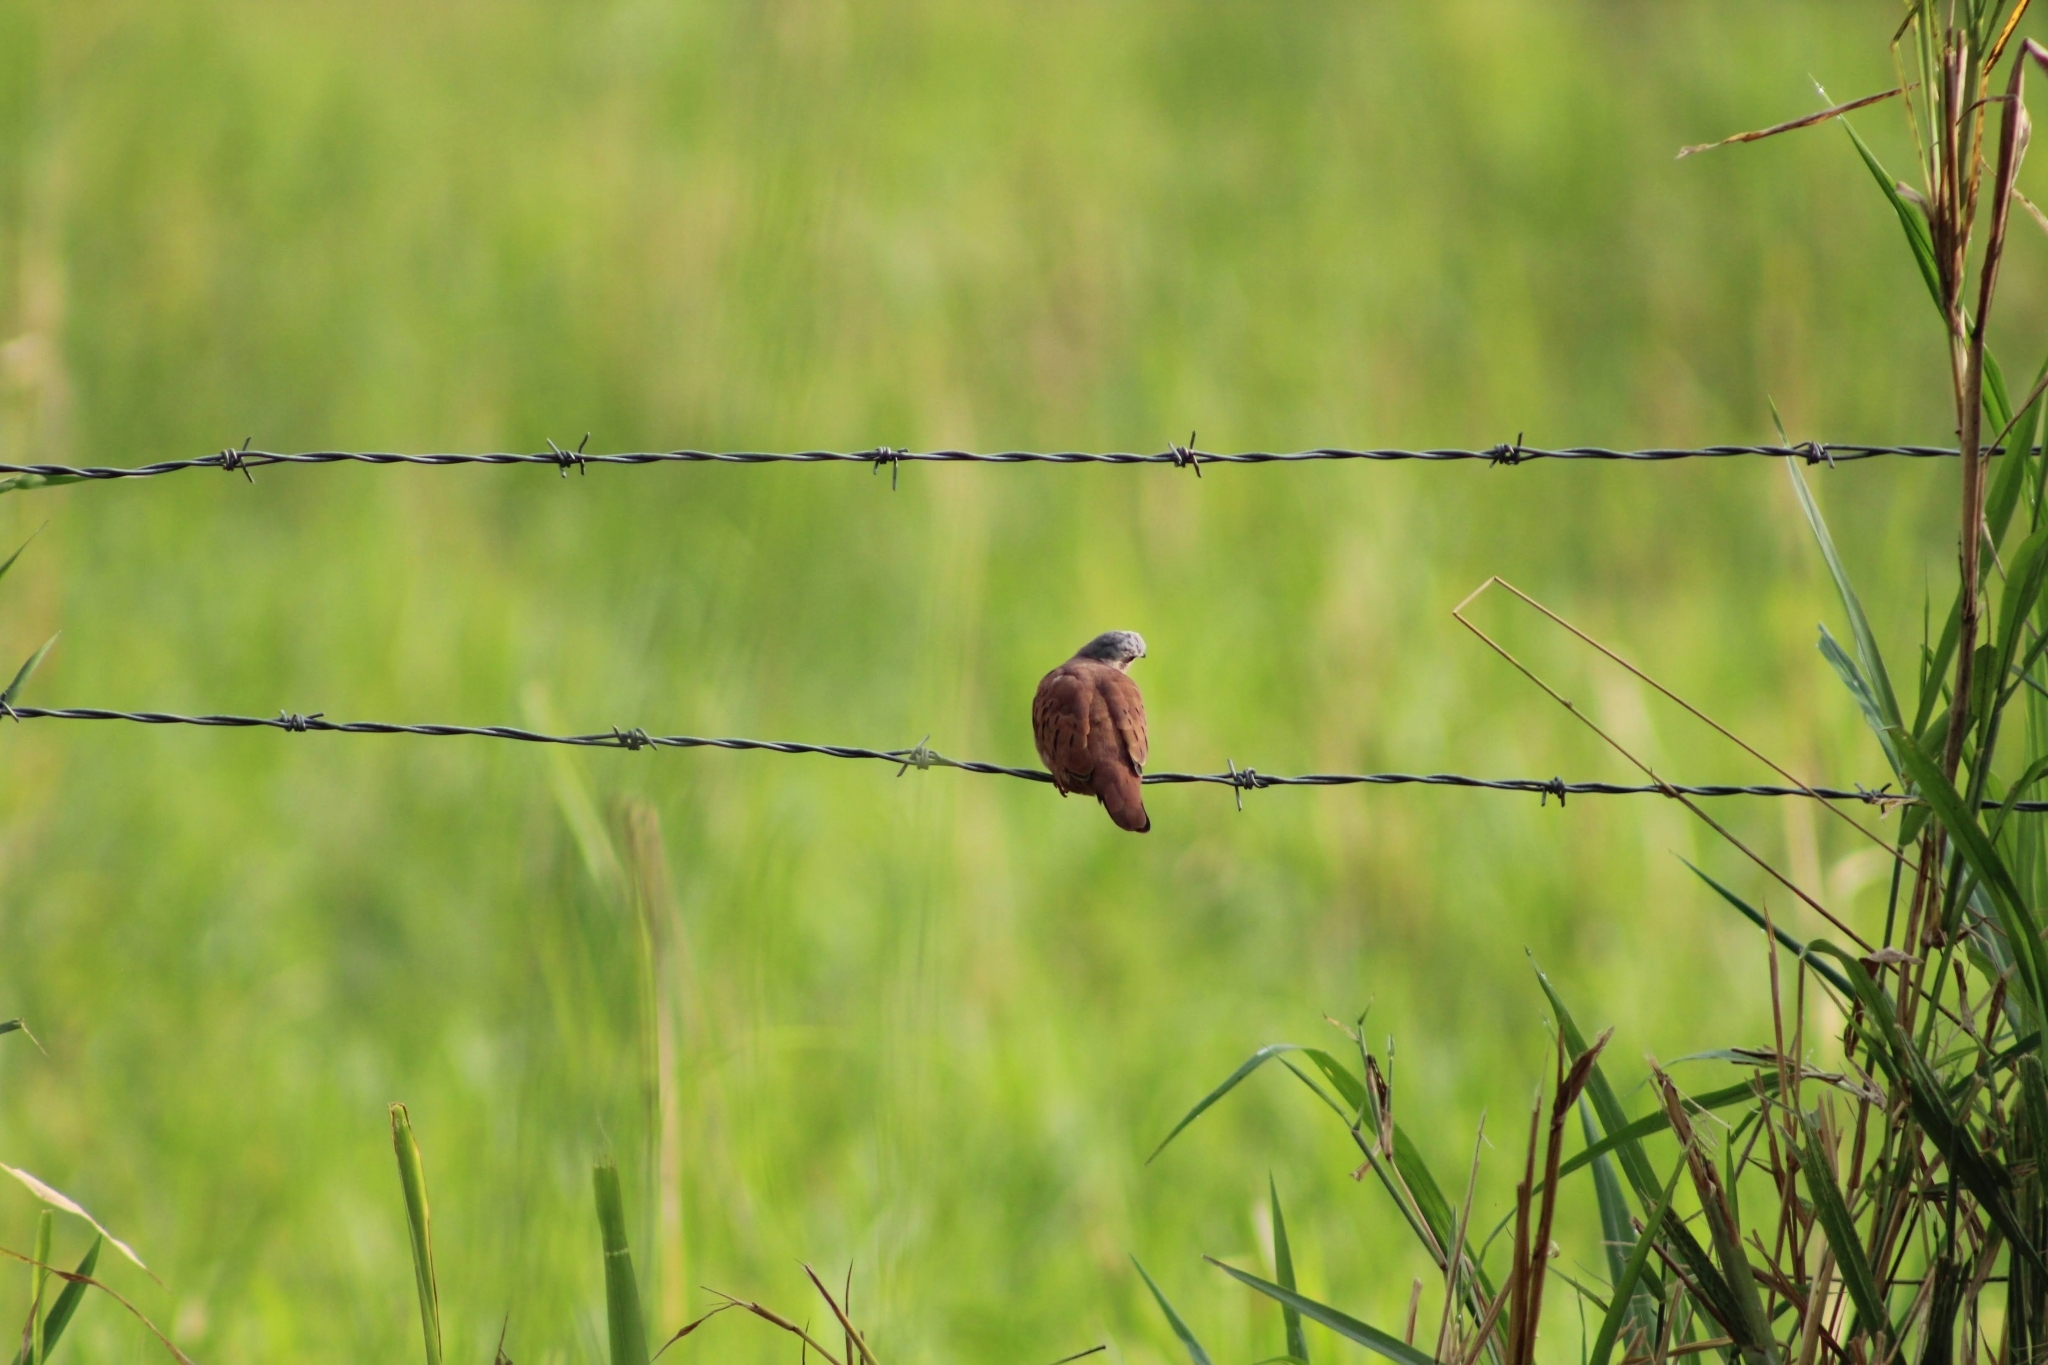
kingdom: Animalia
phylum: Chordata
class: Aves
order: Columbiformes
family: Columbidae
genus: Columbina
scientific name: Columbina talpacoti
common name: Ruddy ground dove
